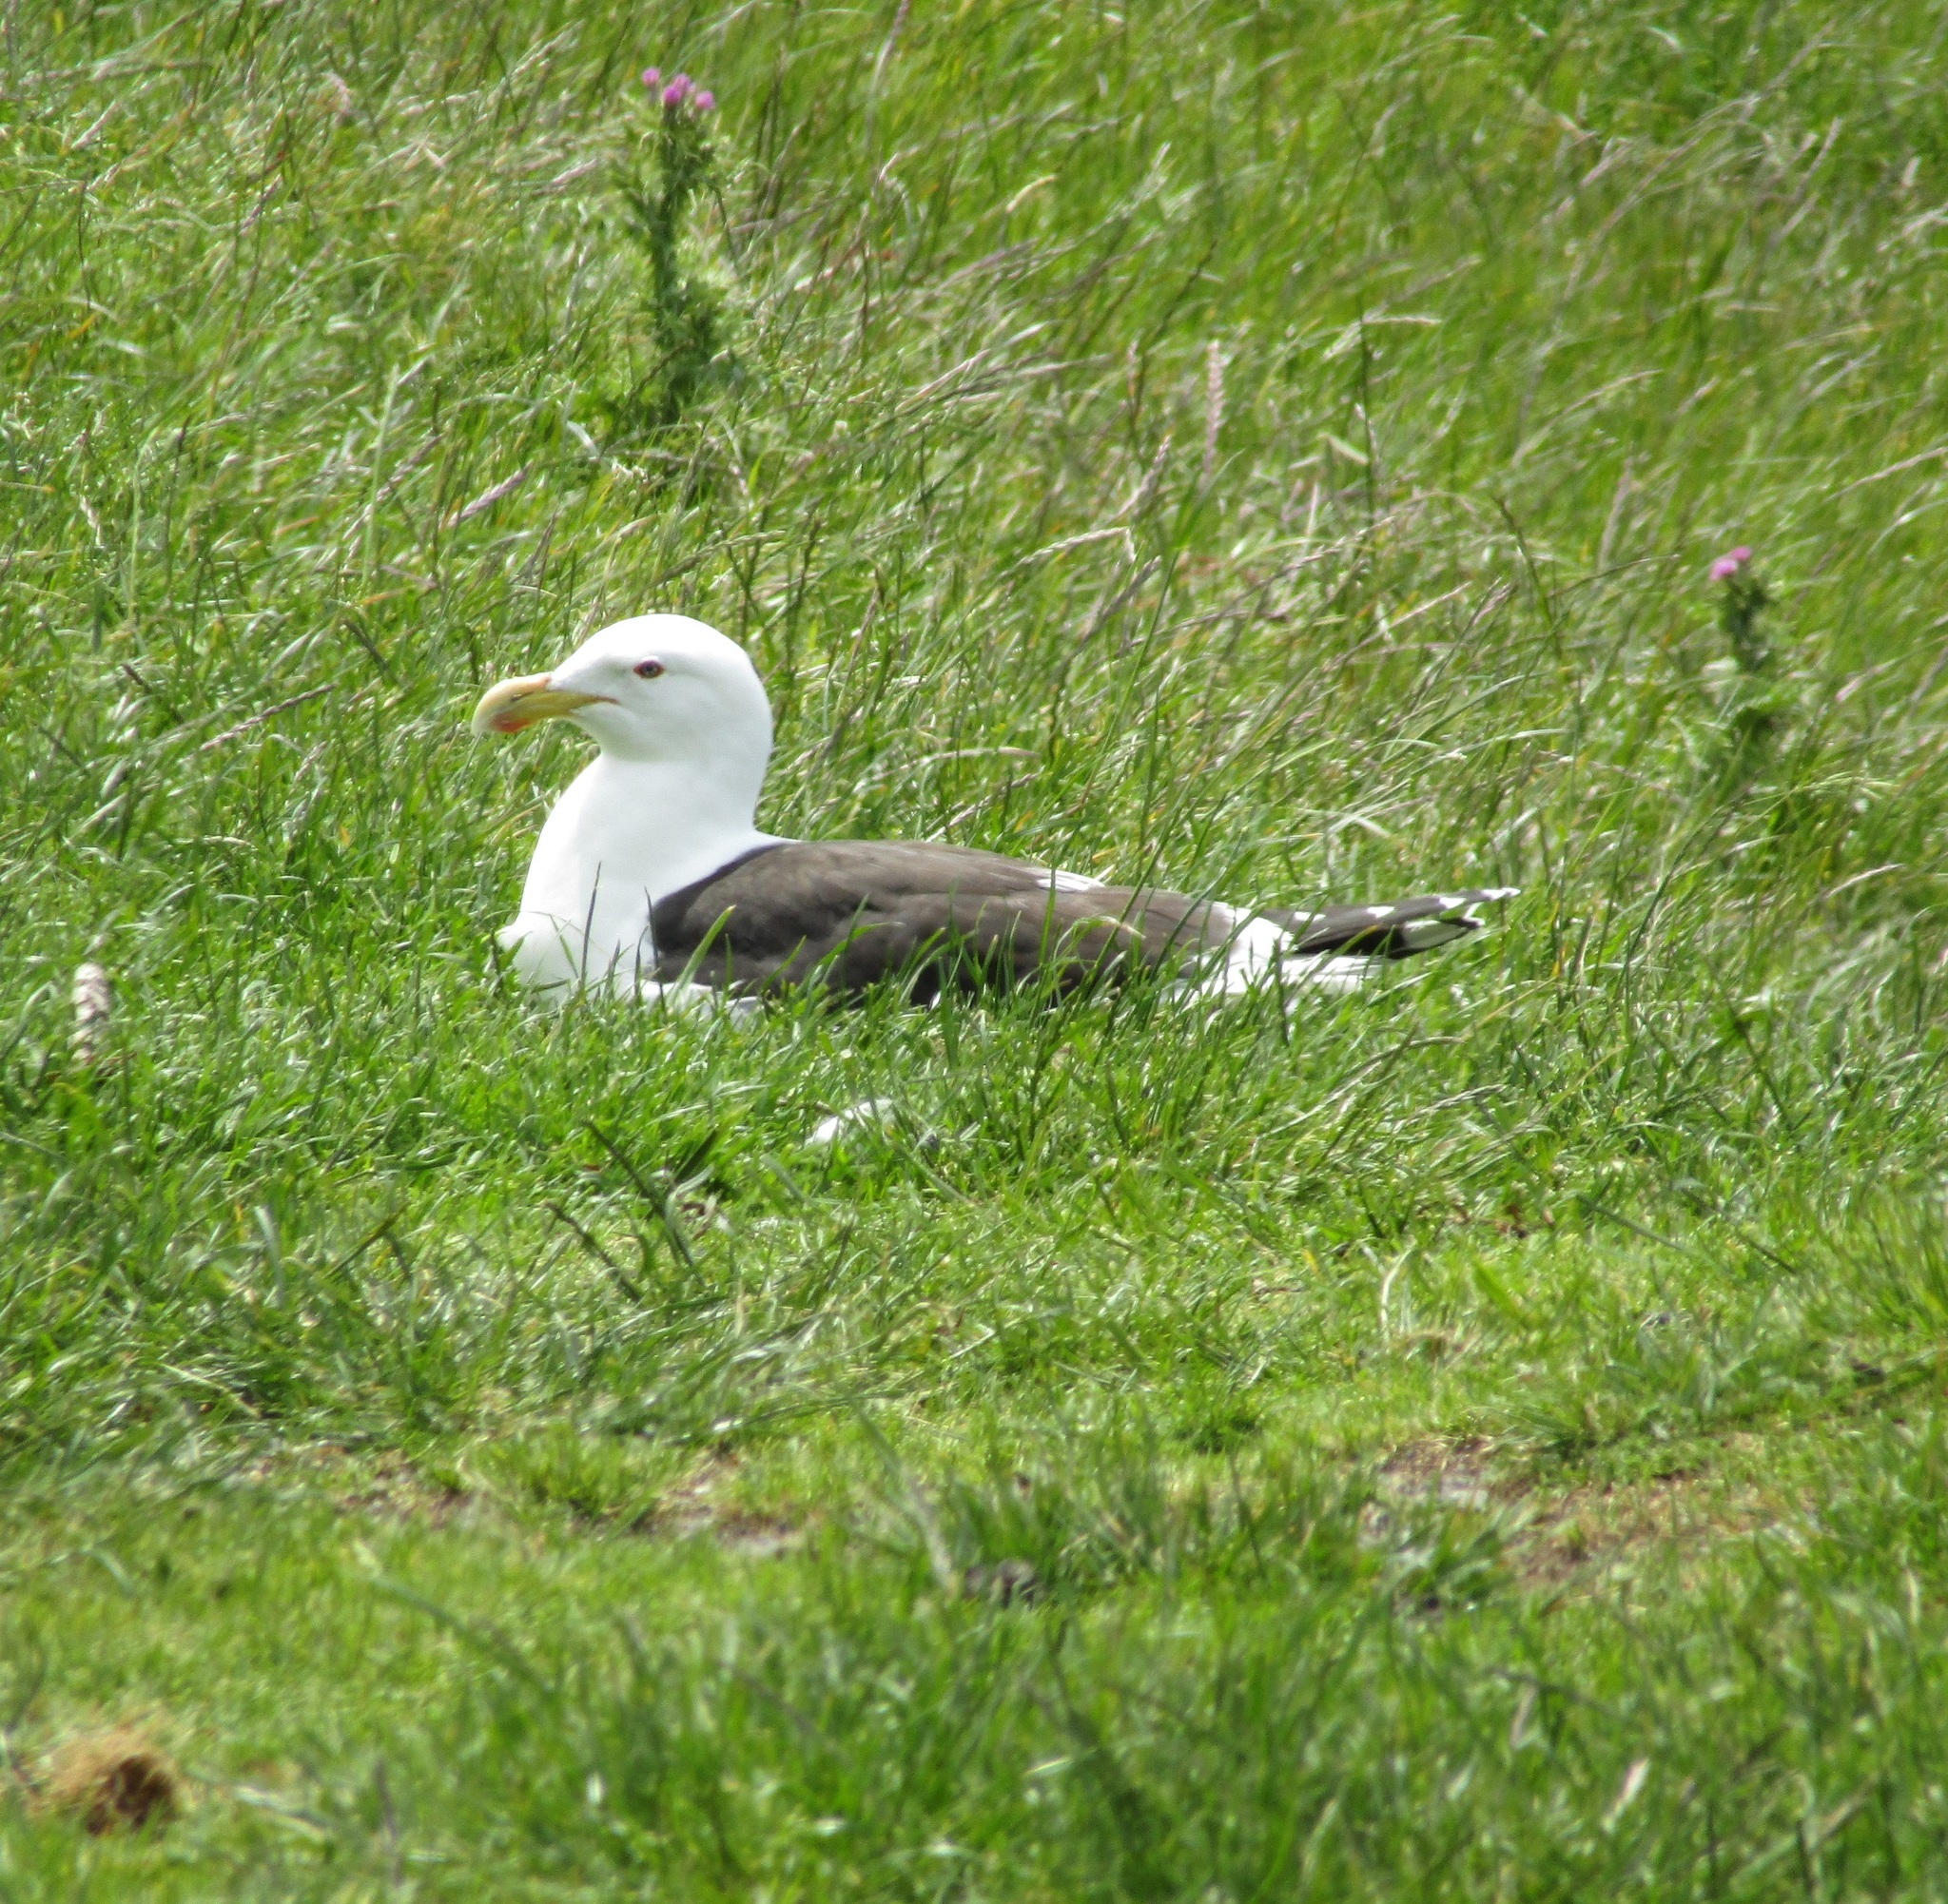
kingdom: Animalia
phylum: Chordata
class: Aves
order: Charadriiformes
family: Laridae
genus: Larus
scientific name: Larus dominicanus
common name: Kelp gull
